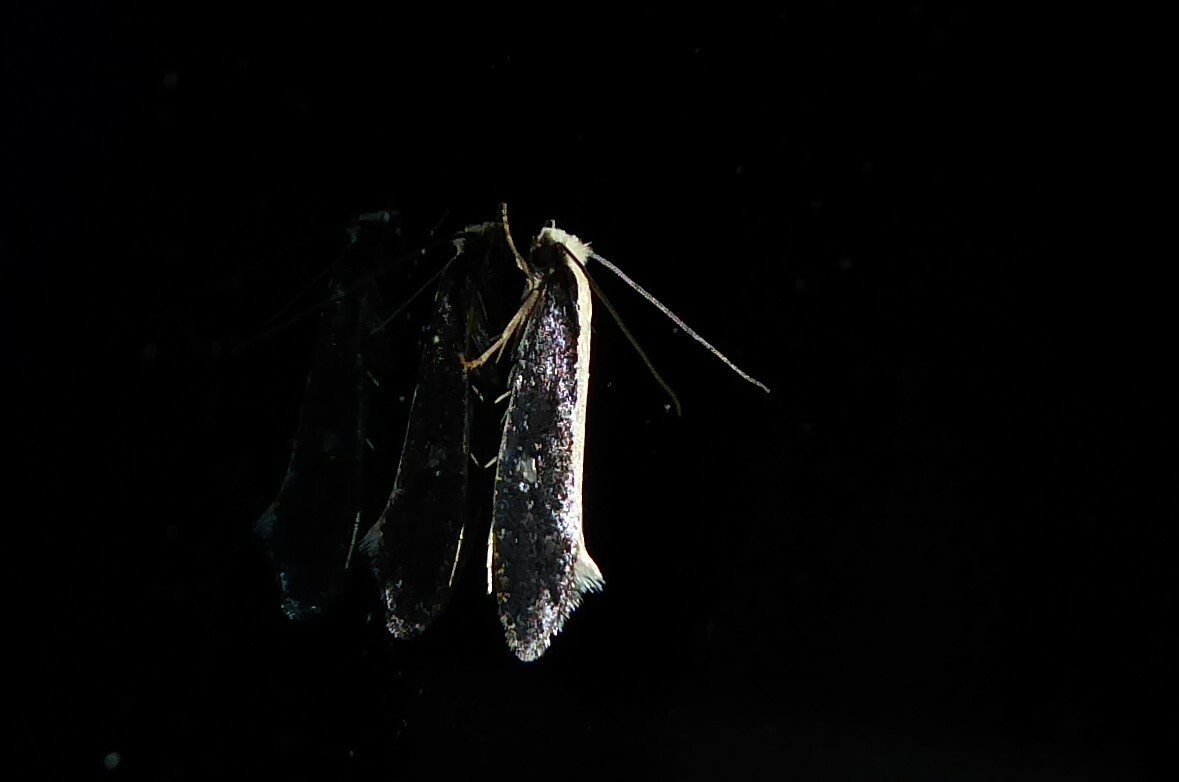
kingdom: Animalia
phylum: Arthropoda
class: Insecta
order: Lepidoptera
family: Tineidae
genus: Monopis
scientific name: Monopis ethelella
